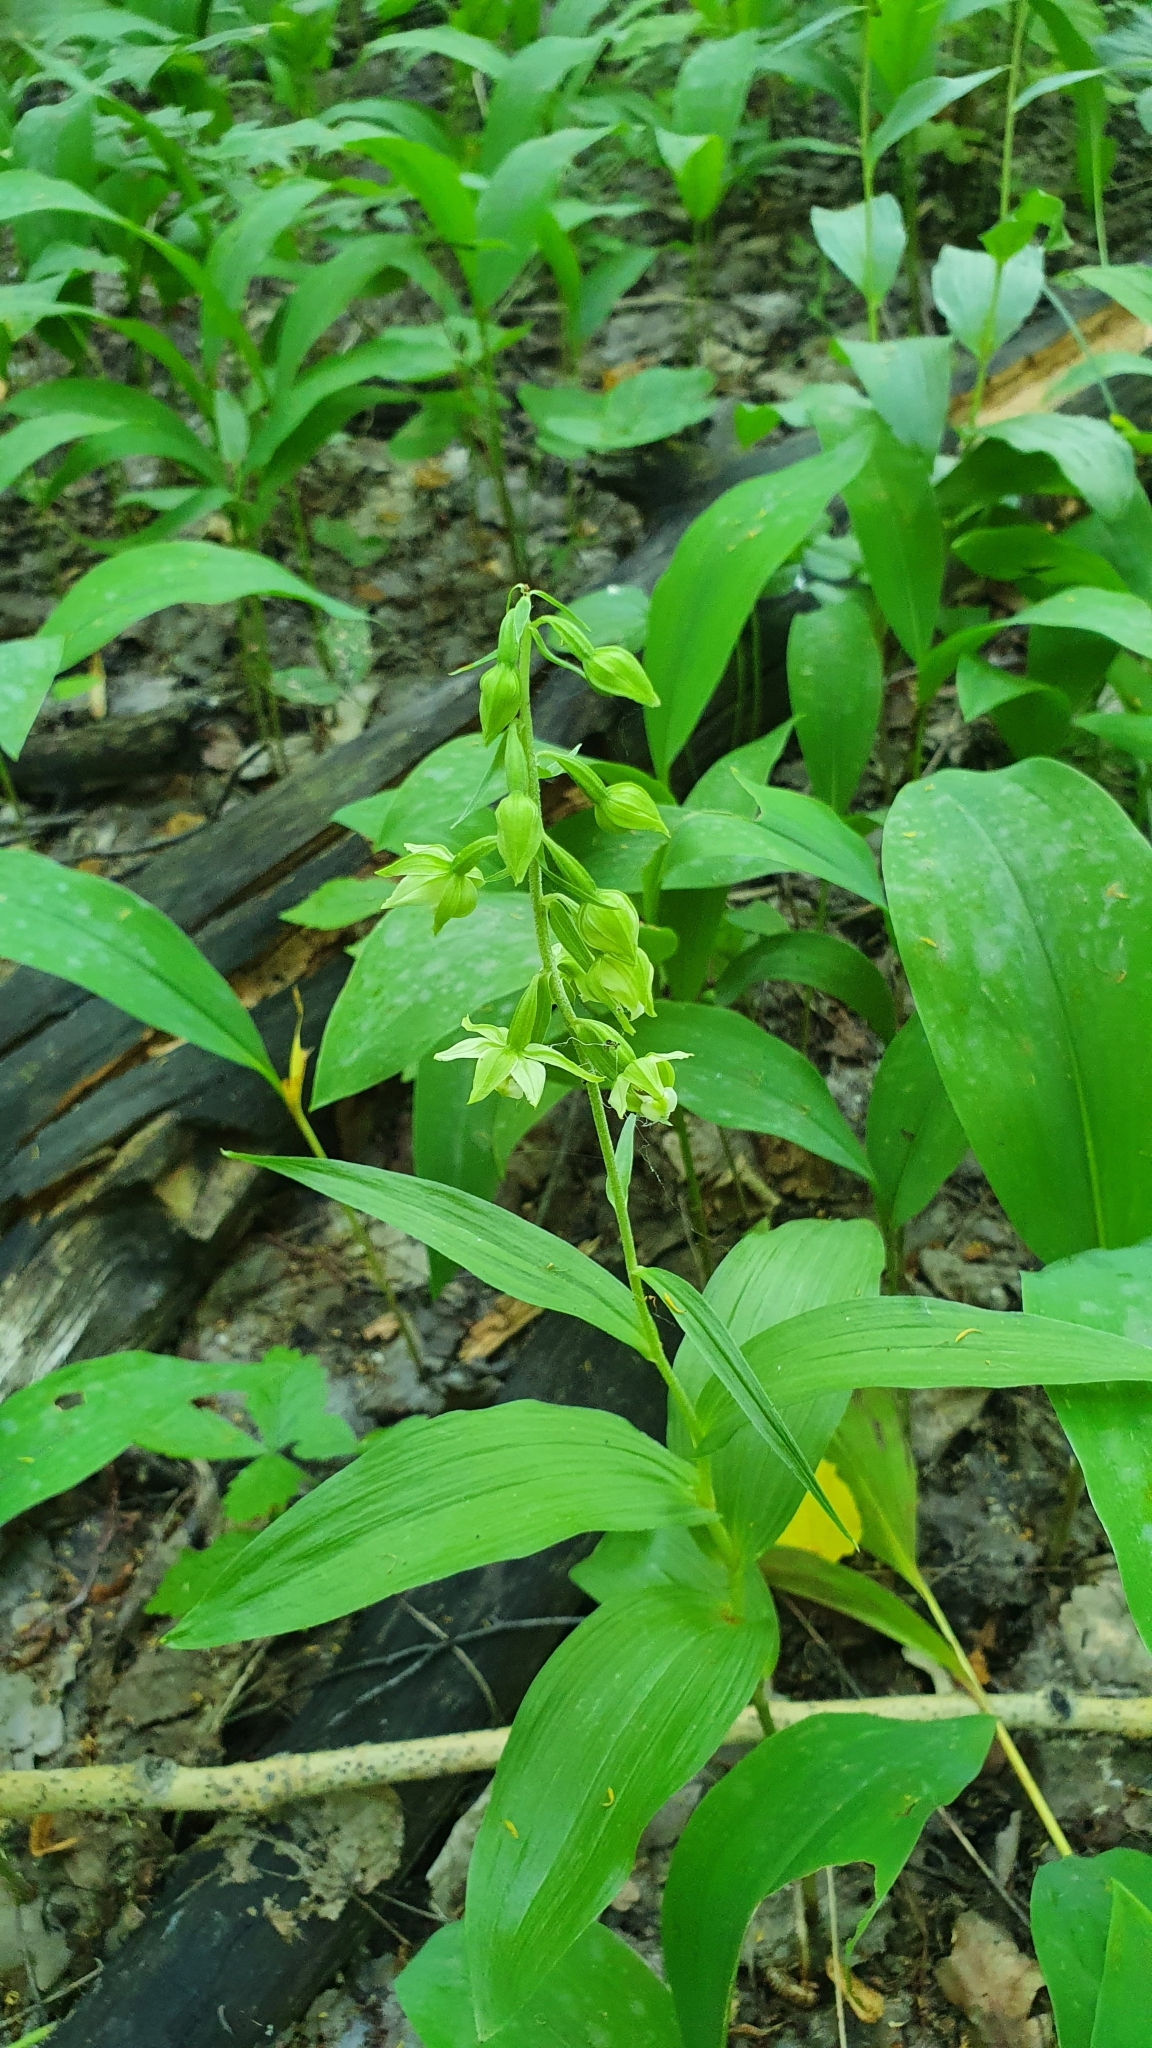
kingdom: Plantae
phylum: Tracheophyta
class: Liliopsida
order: Asparagales
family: Orchidaceae
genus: Epipactis
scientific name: Epipactis helleborine
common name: Broad-leaved helleborine
